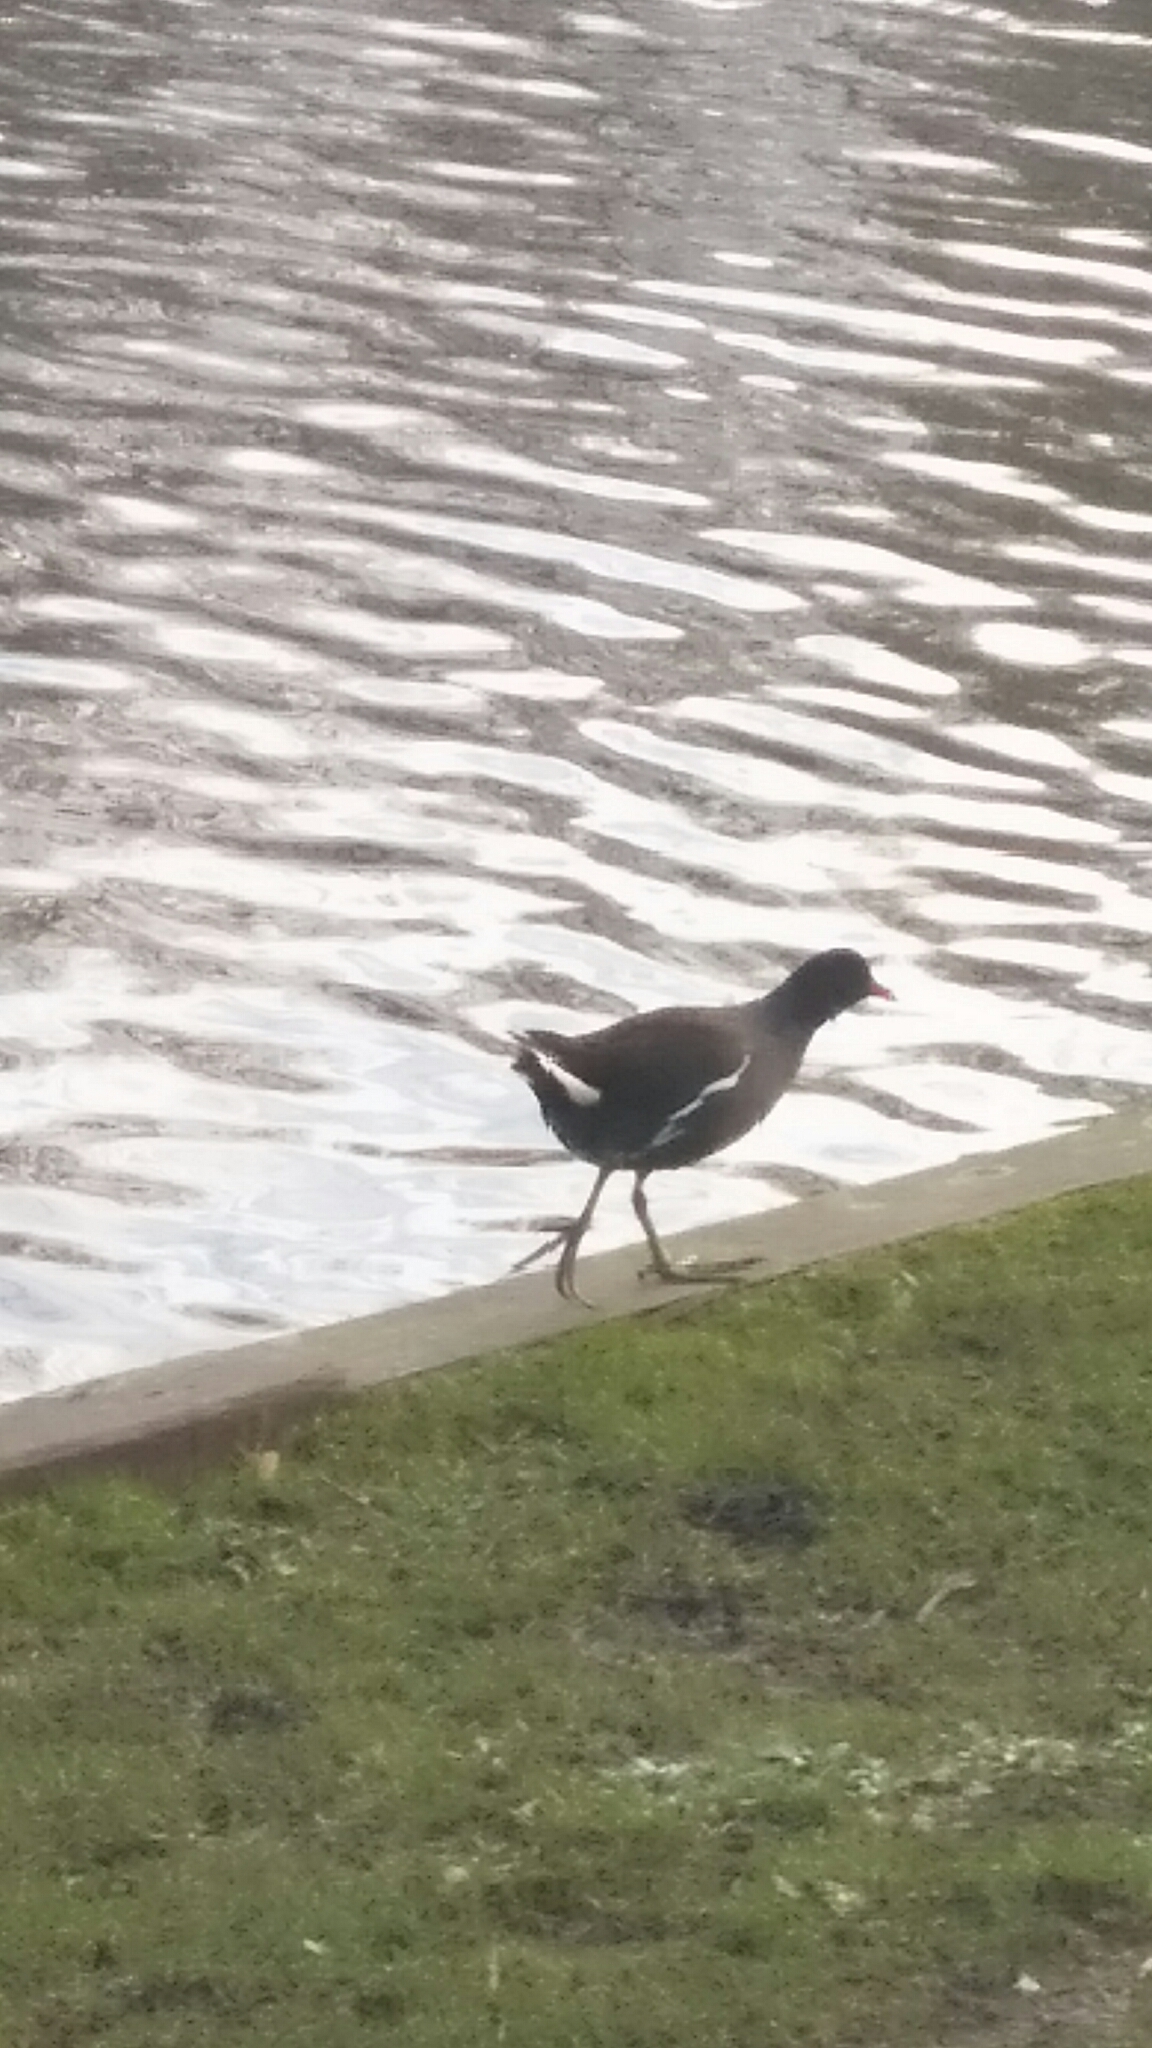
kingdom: Animalia
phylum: Chordata
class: Aves
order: Gruiformes
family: Rallidae
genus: Gallinula
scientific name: Gallinula chloropus
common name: Common moorhen
